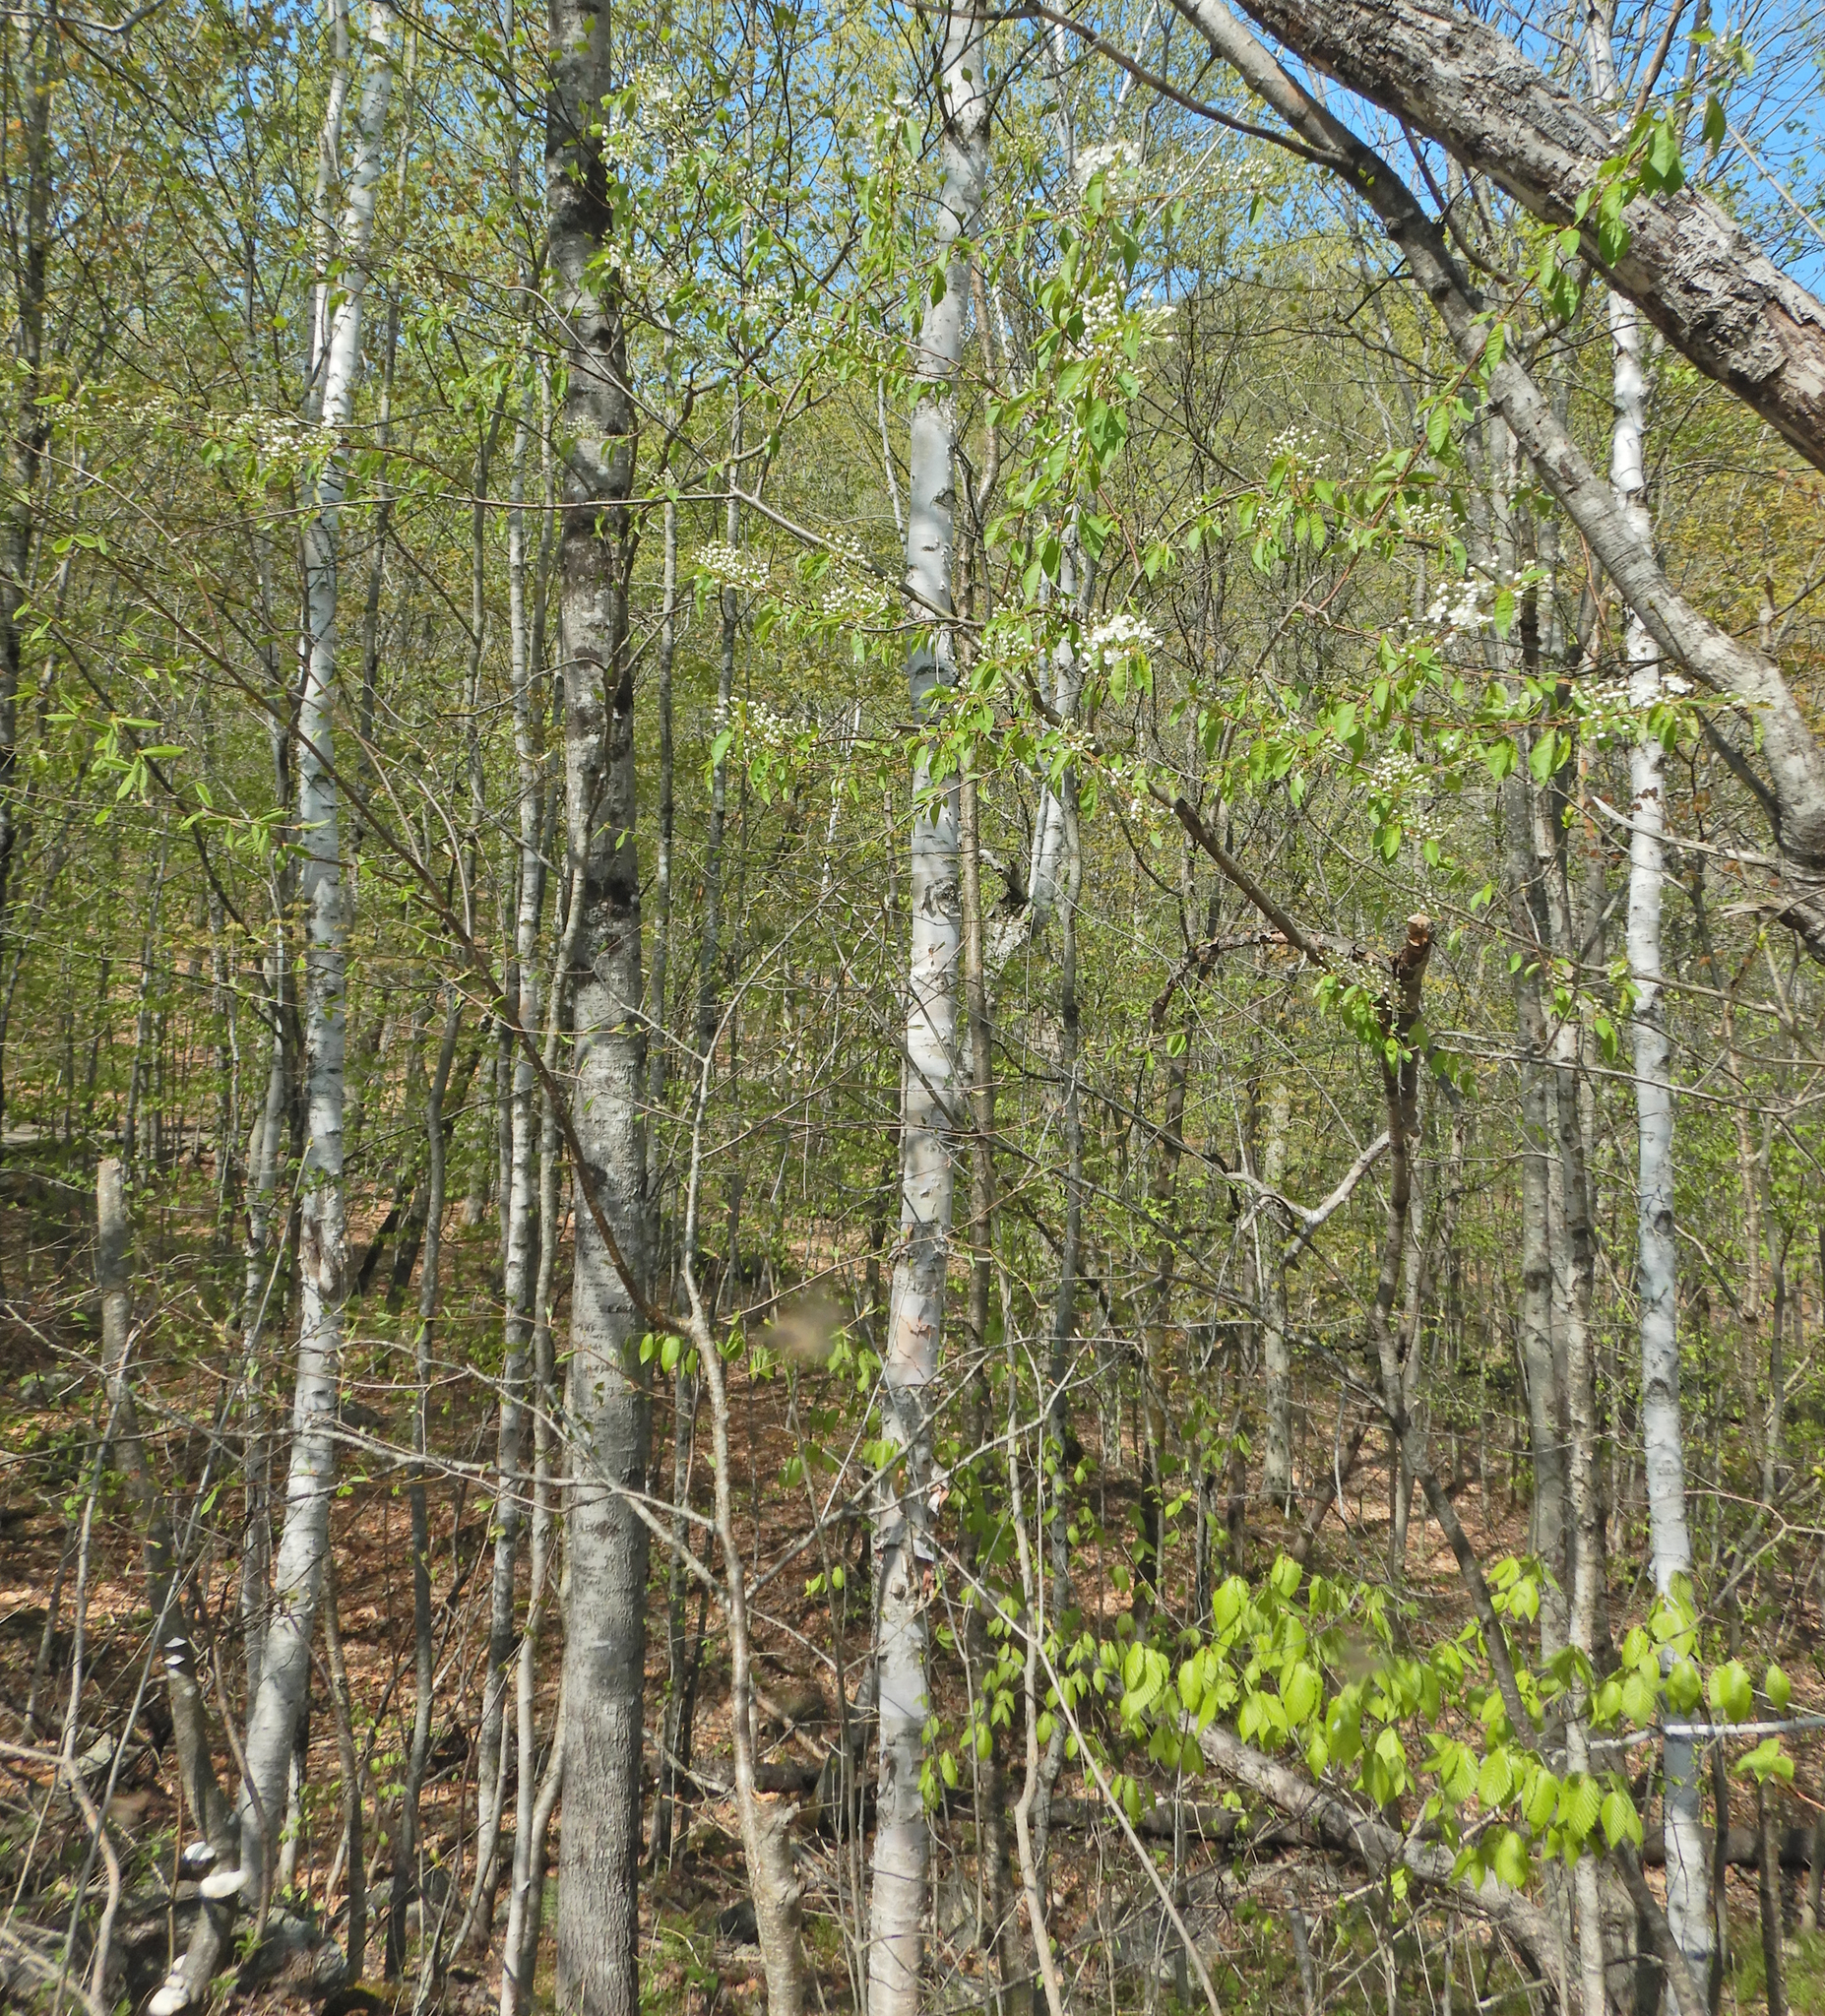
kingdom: Plantae
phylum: Tracheophyta
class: Magnoliopsida
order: Rosales
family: Rosaceae
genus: Prunus
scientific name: Prunus pensylvanica
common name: Pin cherry
